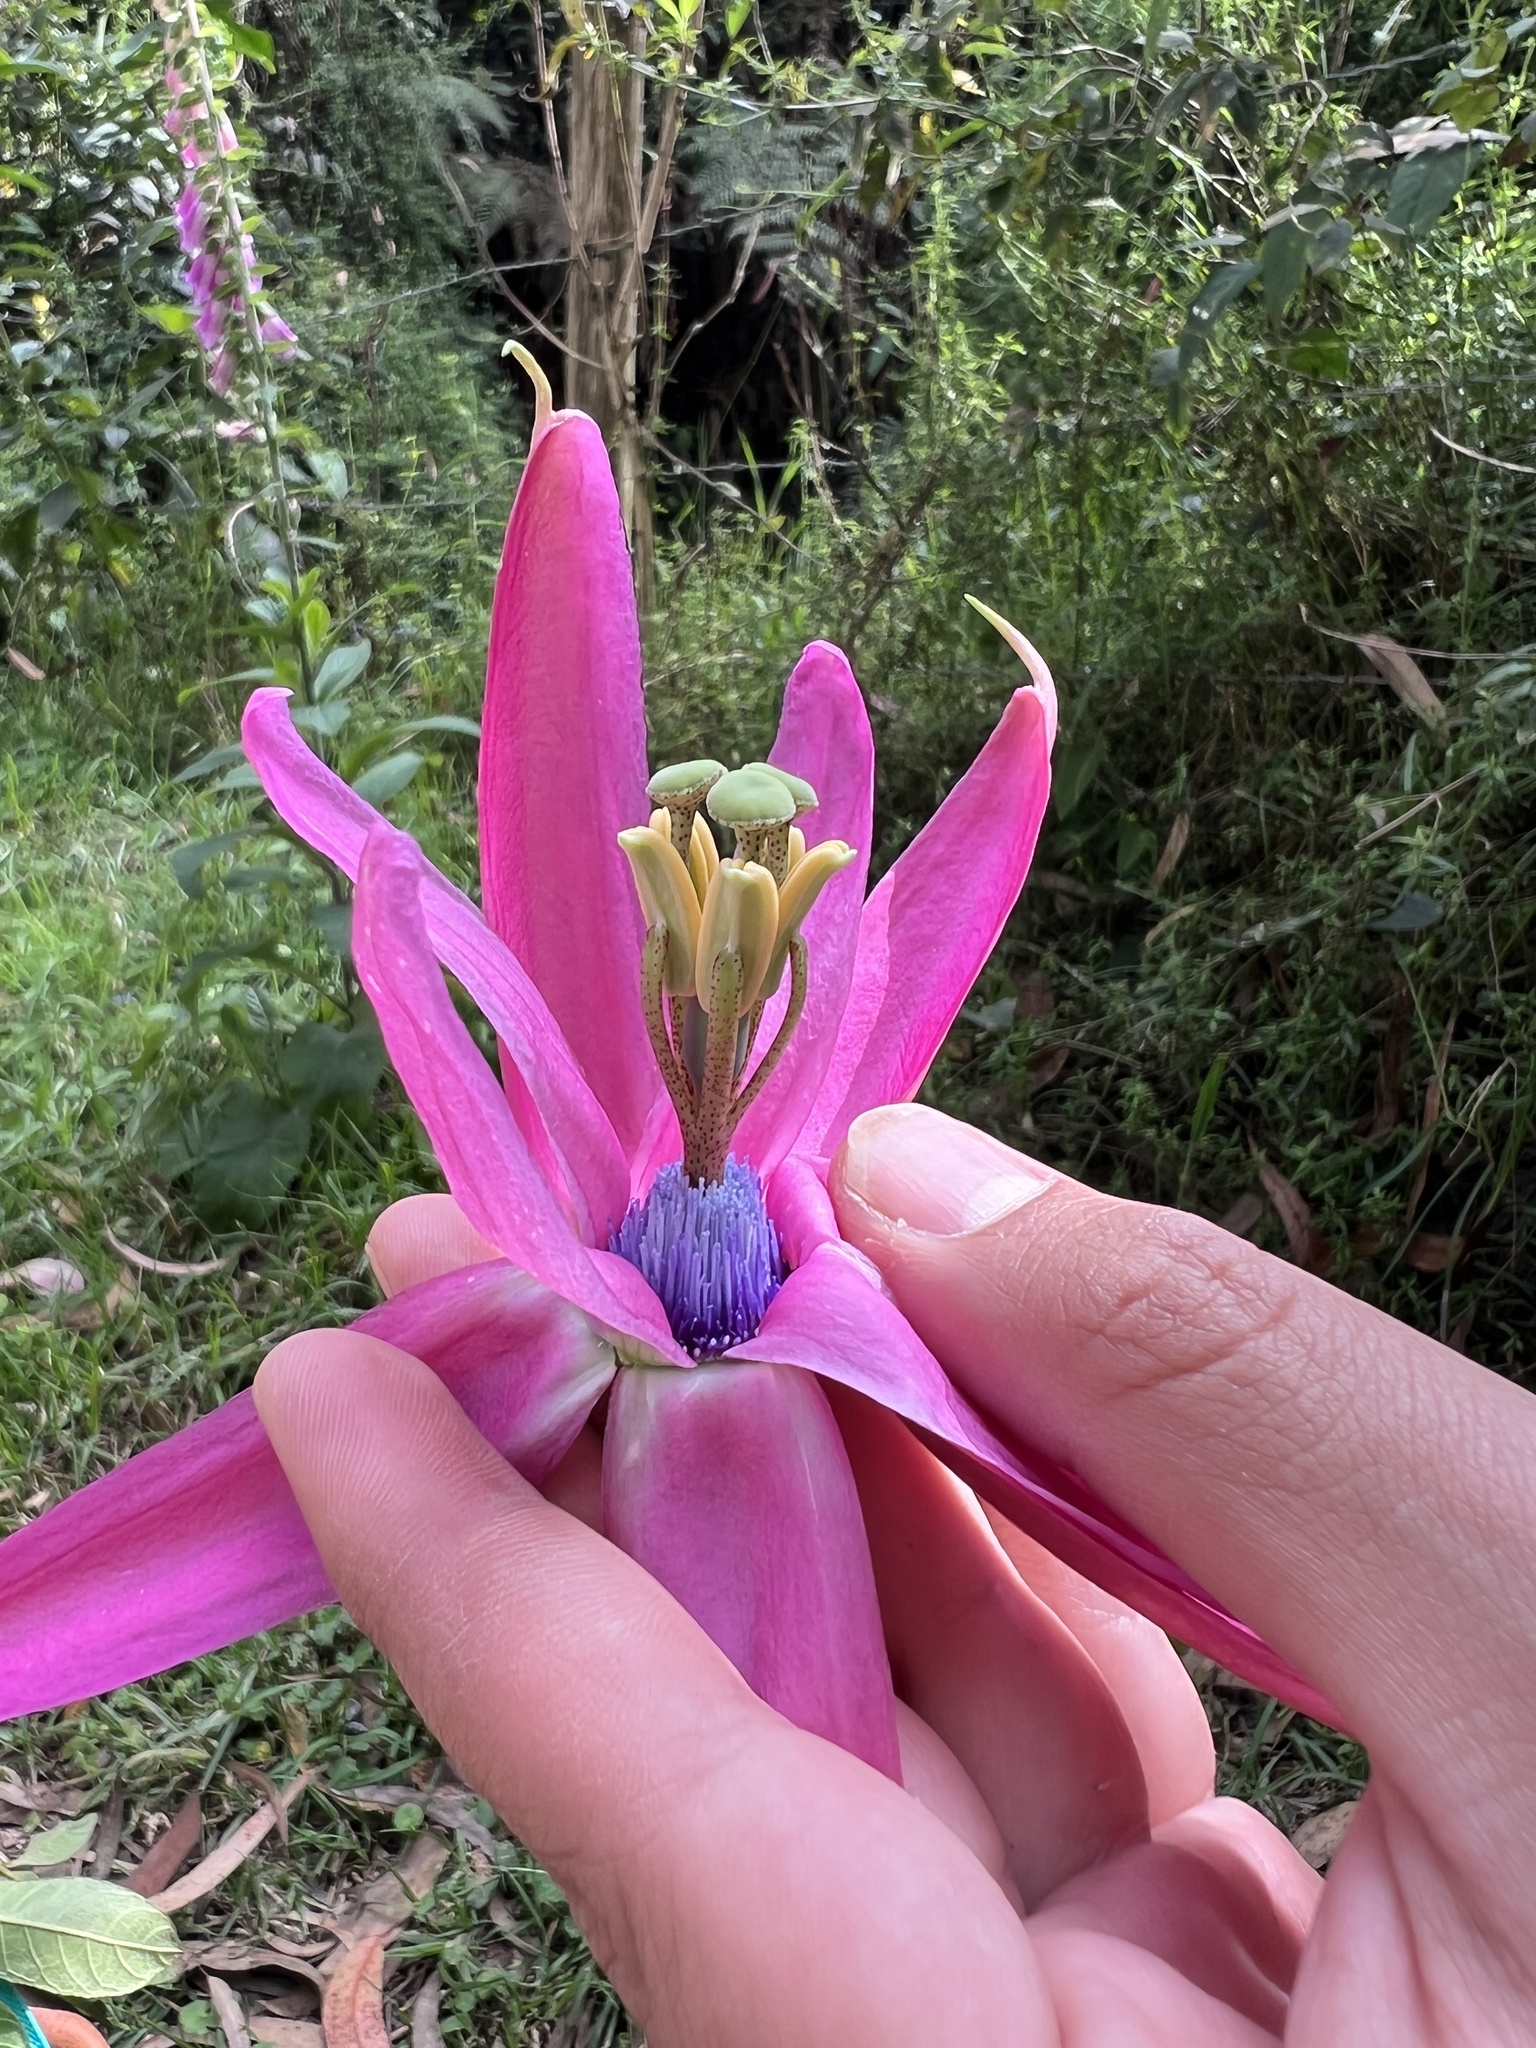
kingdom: Plantae
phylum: Tracheophyta
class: Magnoliopsida
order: Malpighiales
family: Passifloraceae
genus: Passiflora
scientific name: Passiflora longipes
